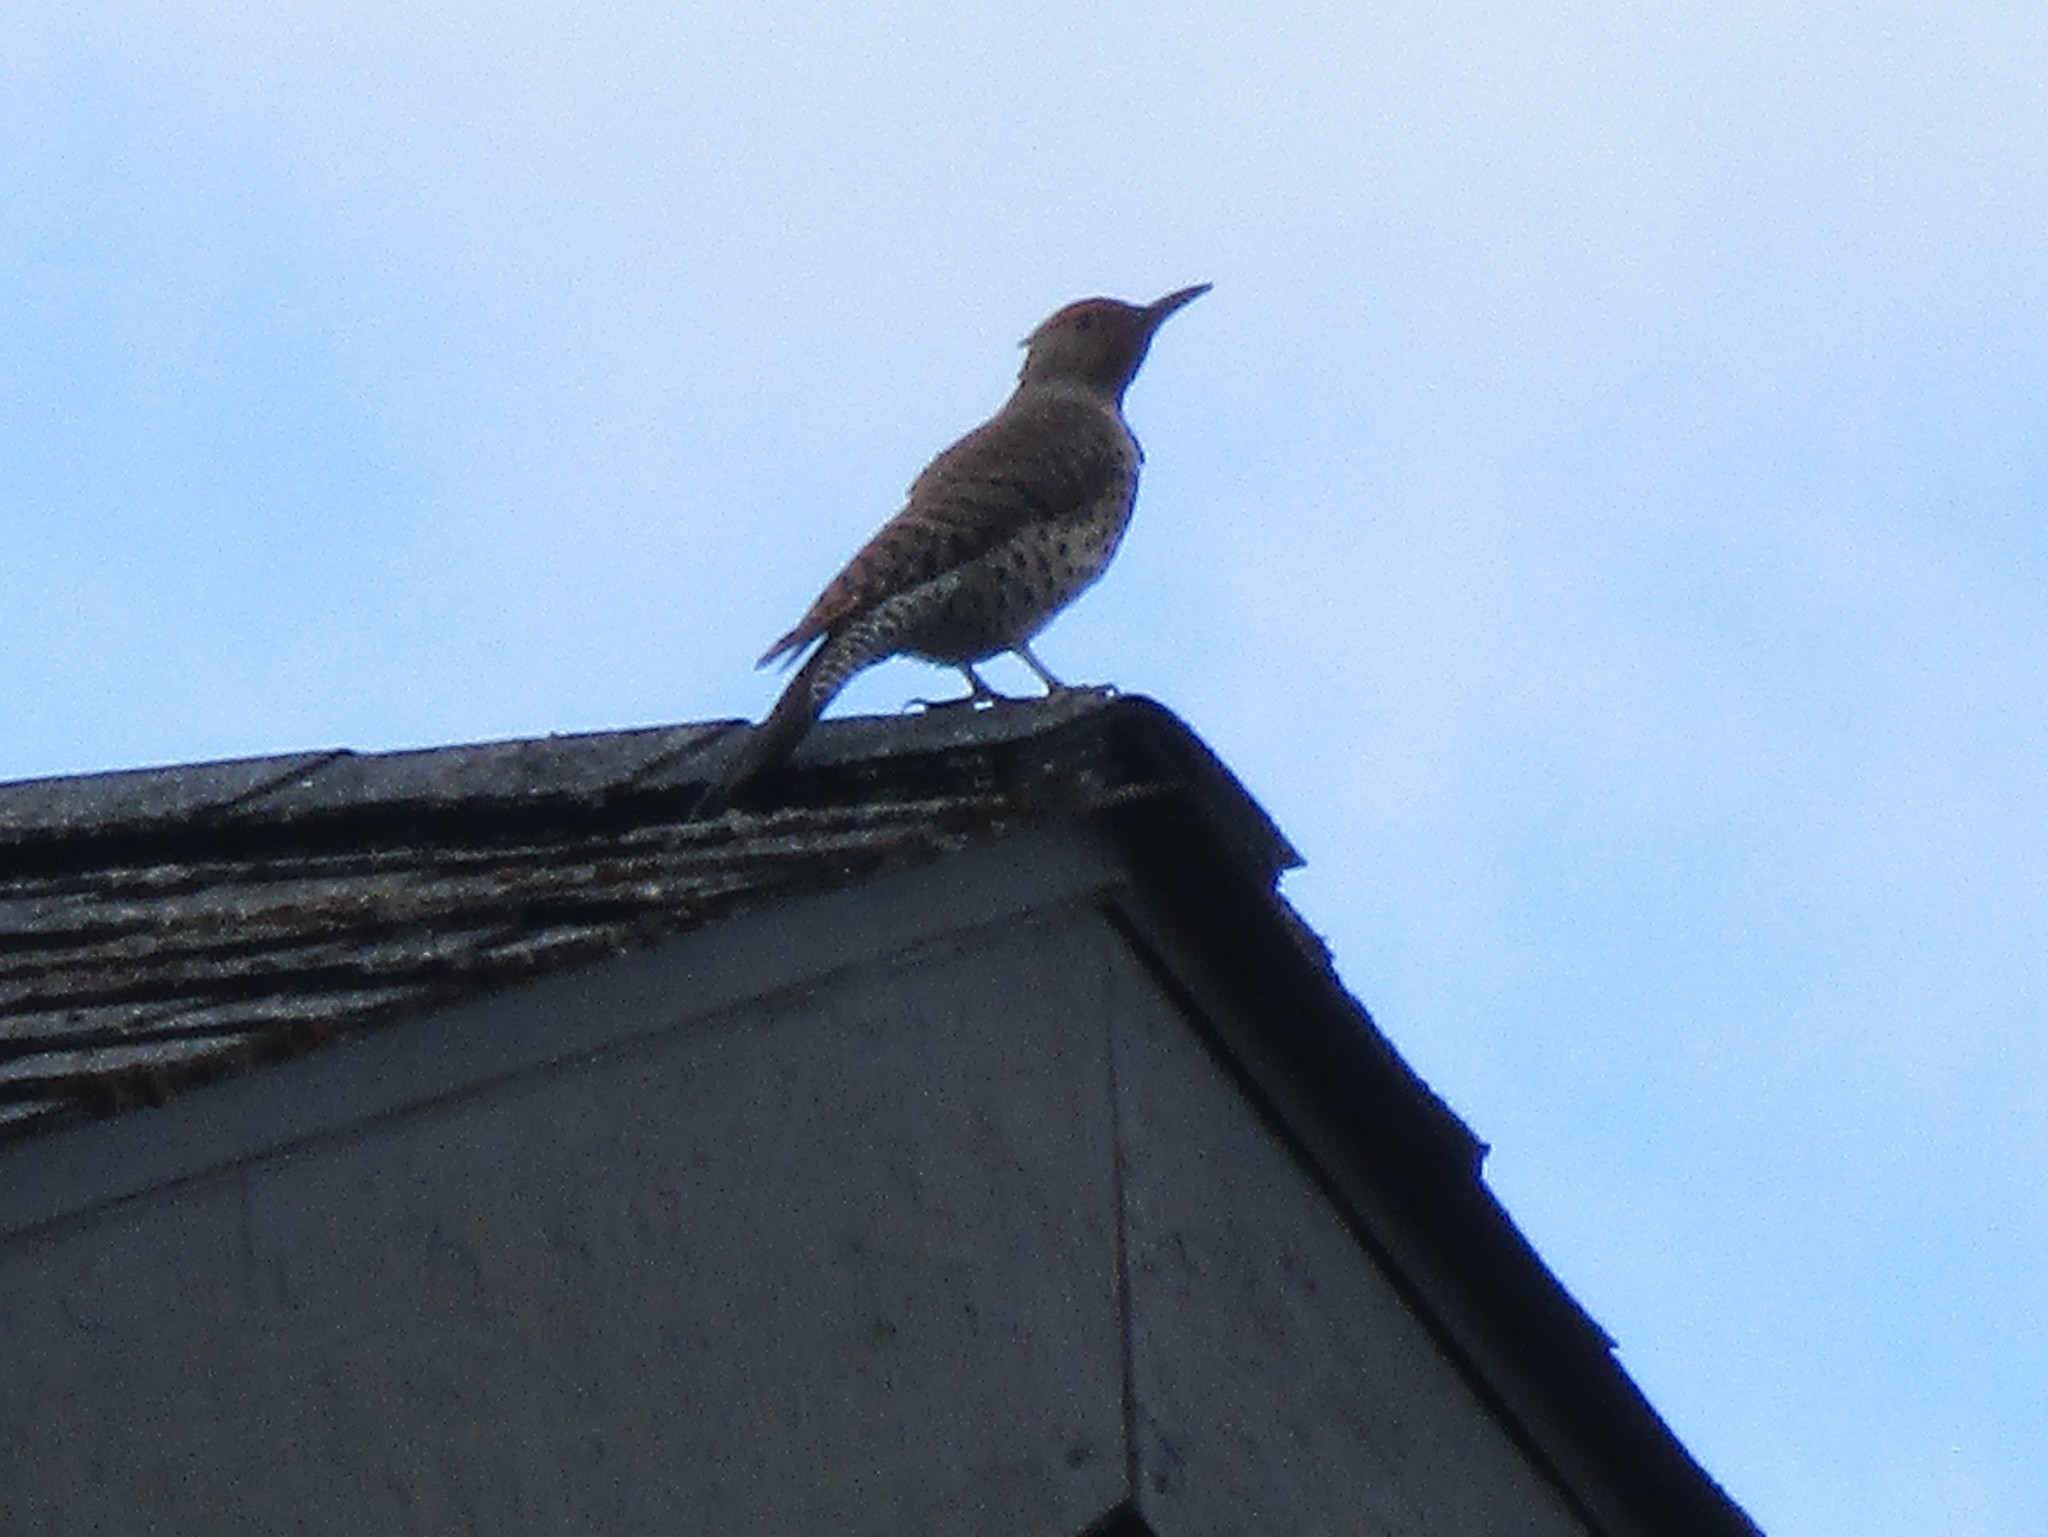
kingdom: Animalia
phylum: Chordata
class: Aves
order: Piciformes
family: Picidae
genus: Colaptes
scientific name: Colaptes auratus
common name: Northern flicker
